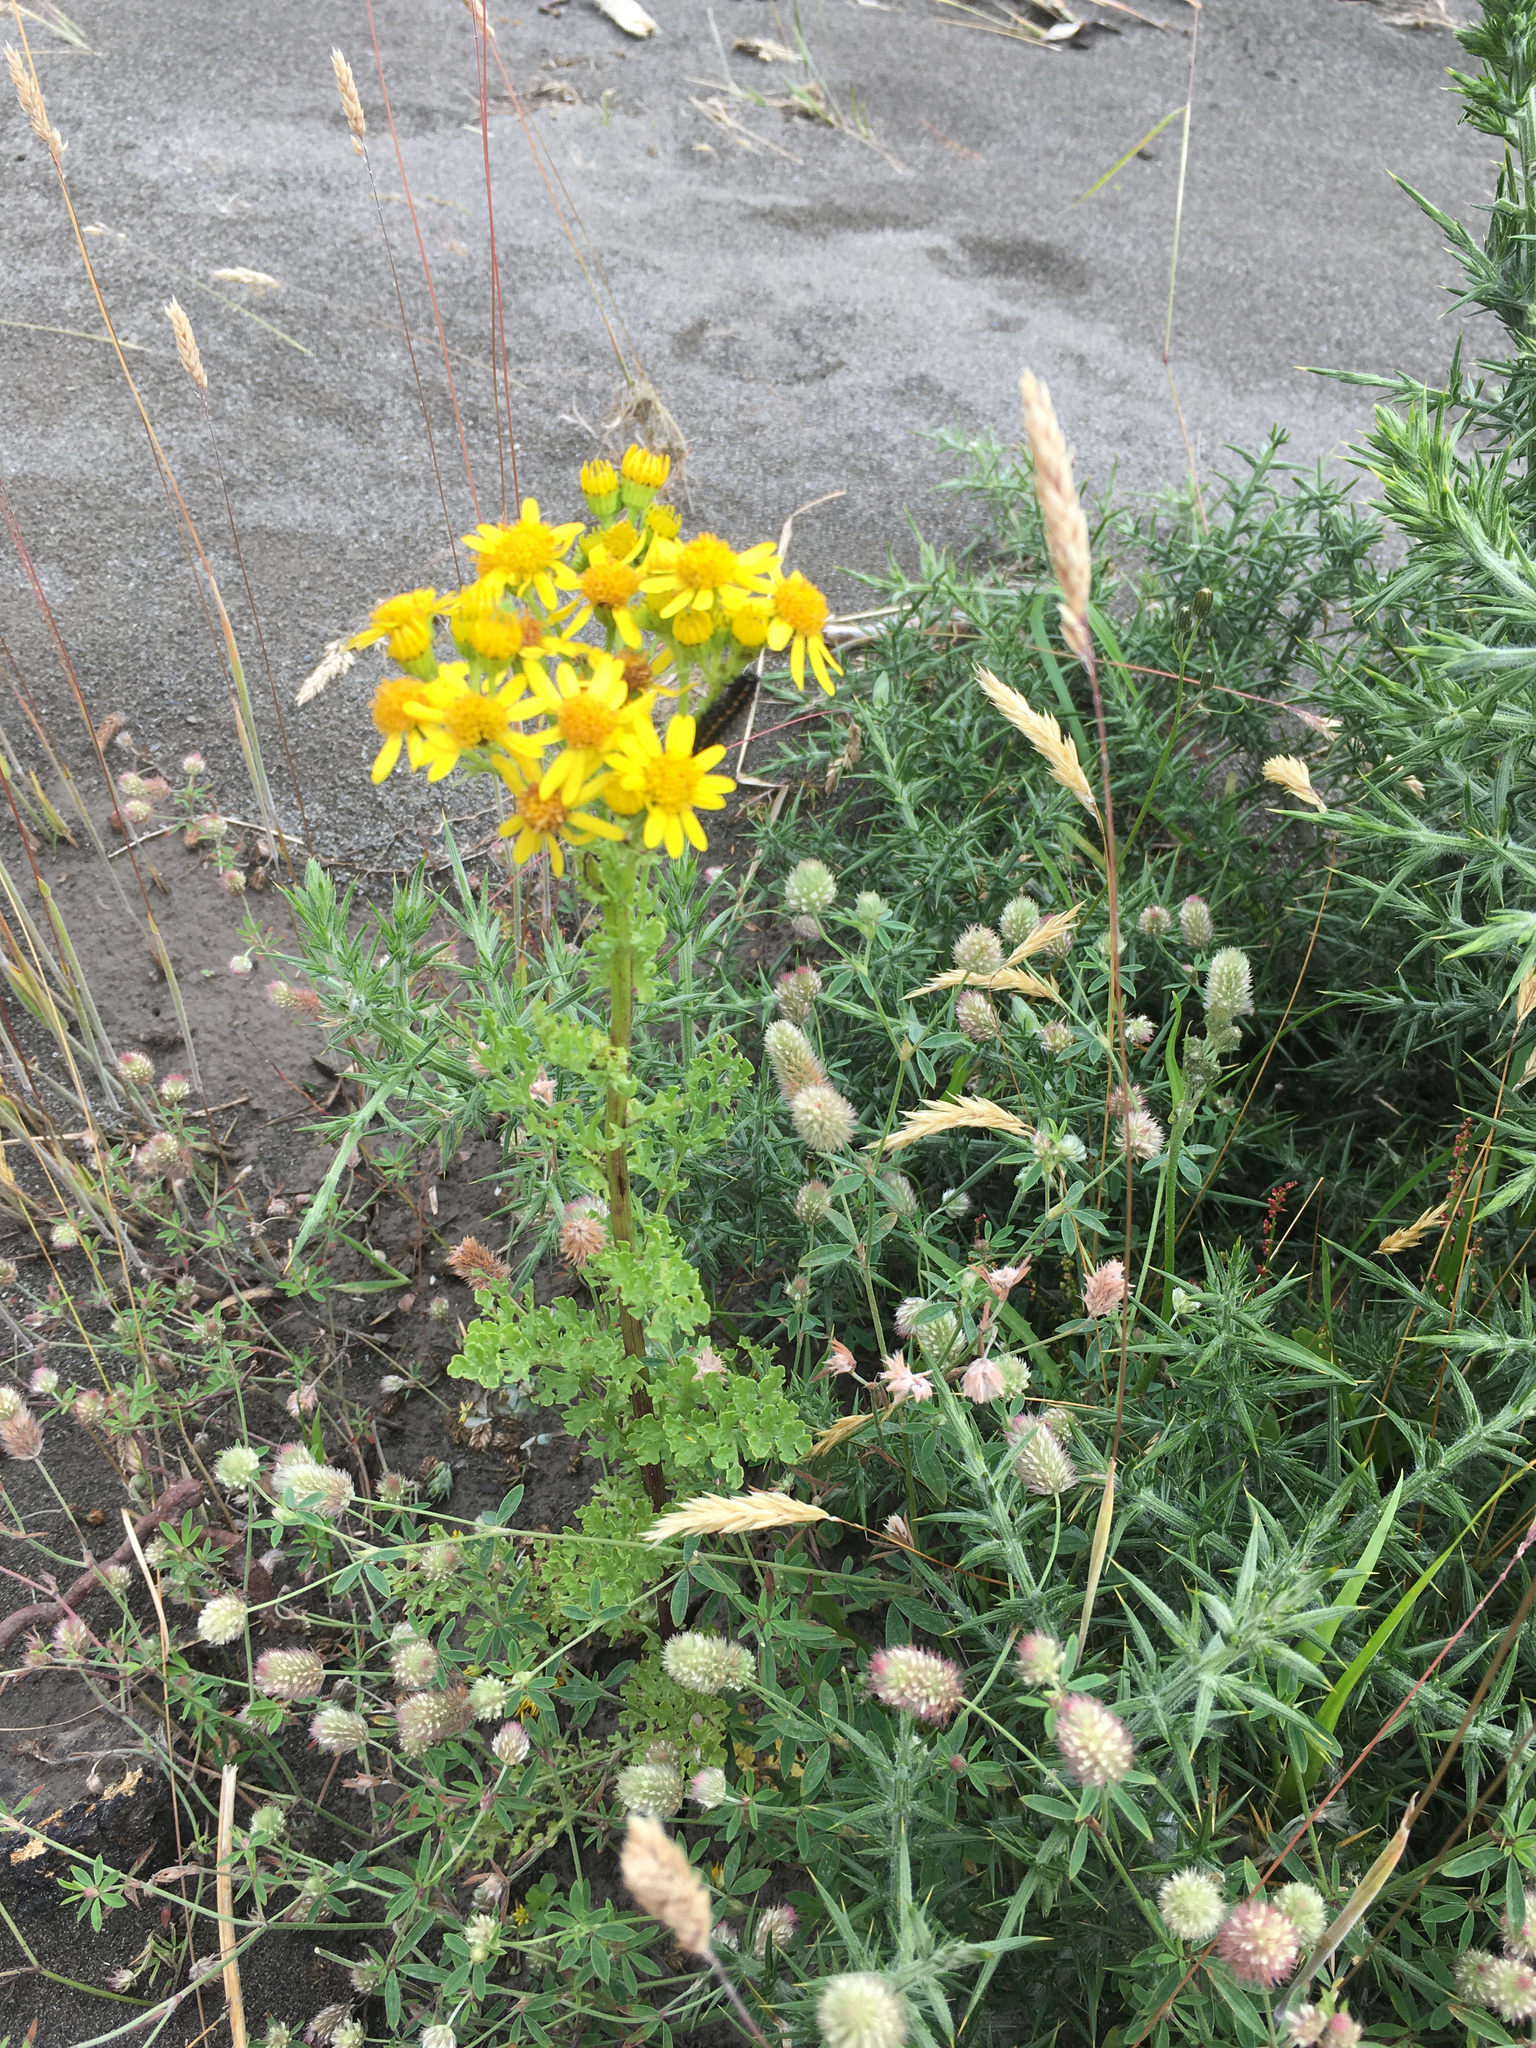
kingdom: Plantae
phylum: Tracheophyta
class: Magnoliopsida
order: Asterales
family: Asteraceae
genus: Jacobaea
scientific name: Jacobaea vulgaris
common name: Stinking willie
